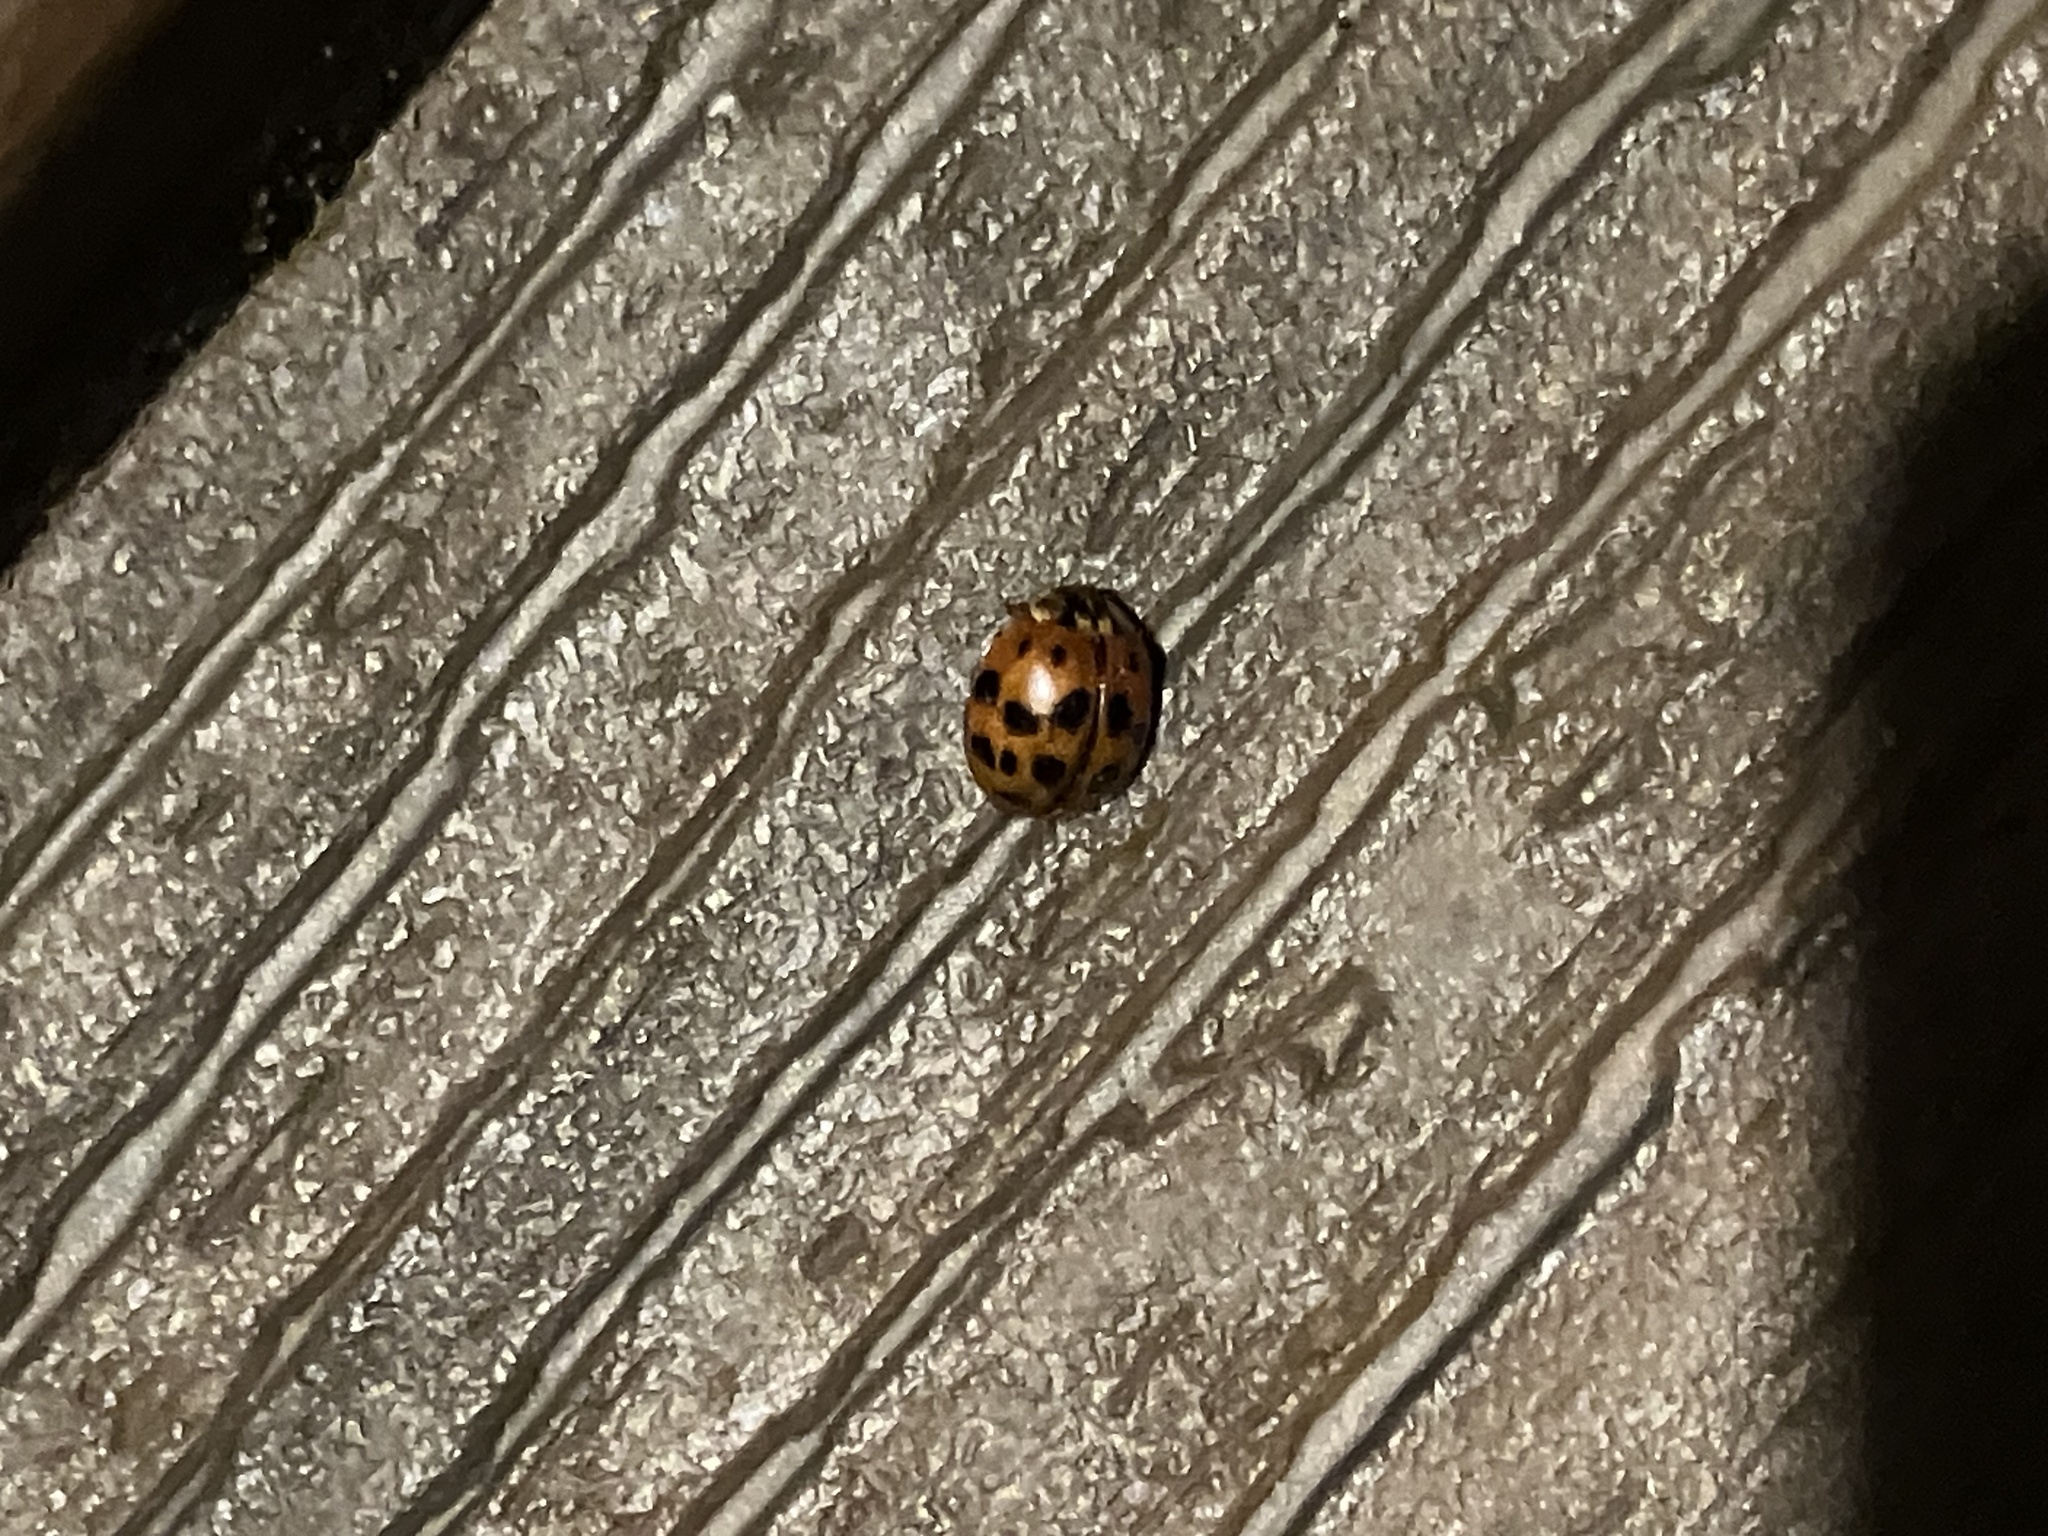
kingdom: Animalia
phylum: Arthropoda
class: Insecta
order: Coleoptera
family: Coccinellidae
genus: Harmonia
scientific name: Harmonia axyridis
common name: Harlequin ladybird
